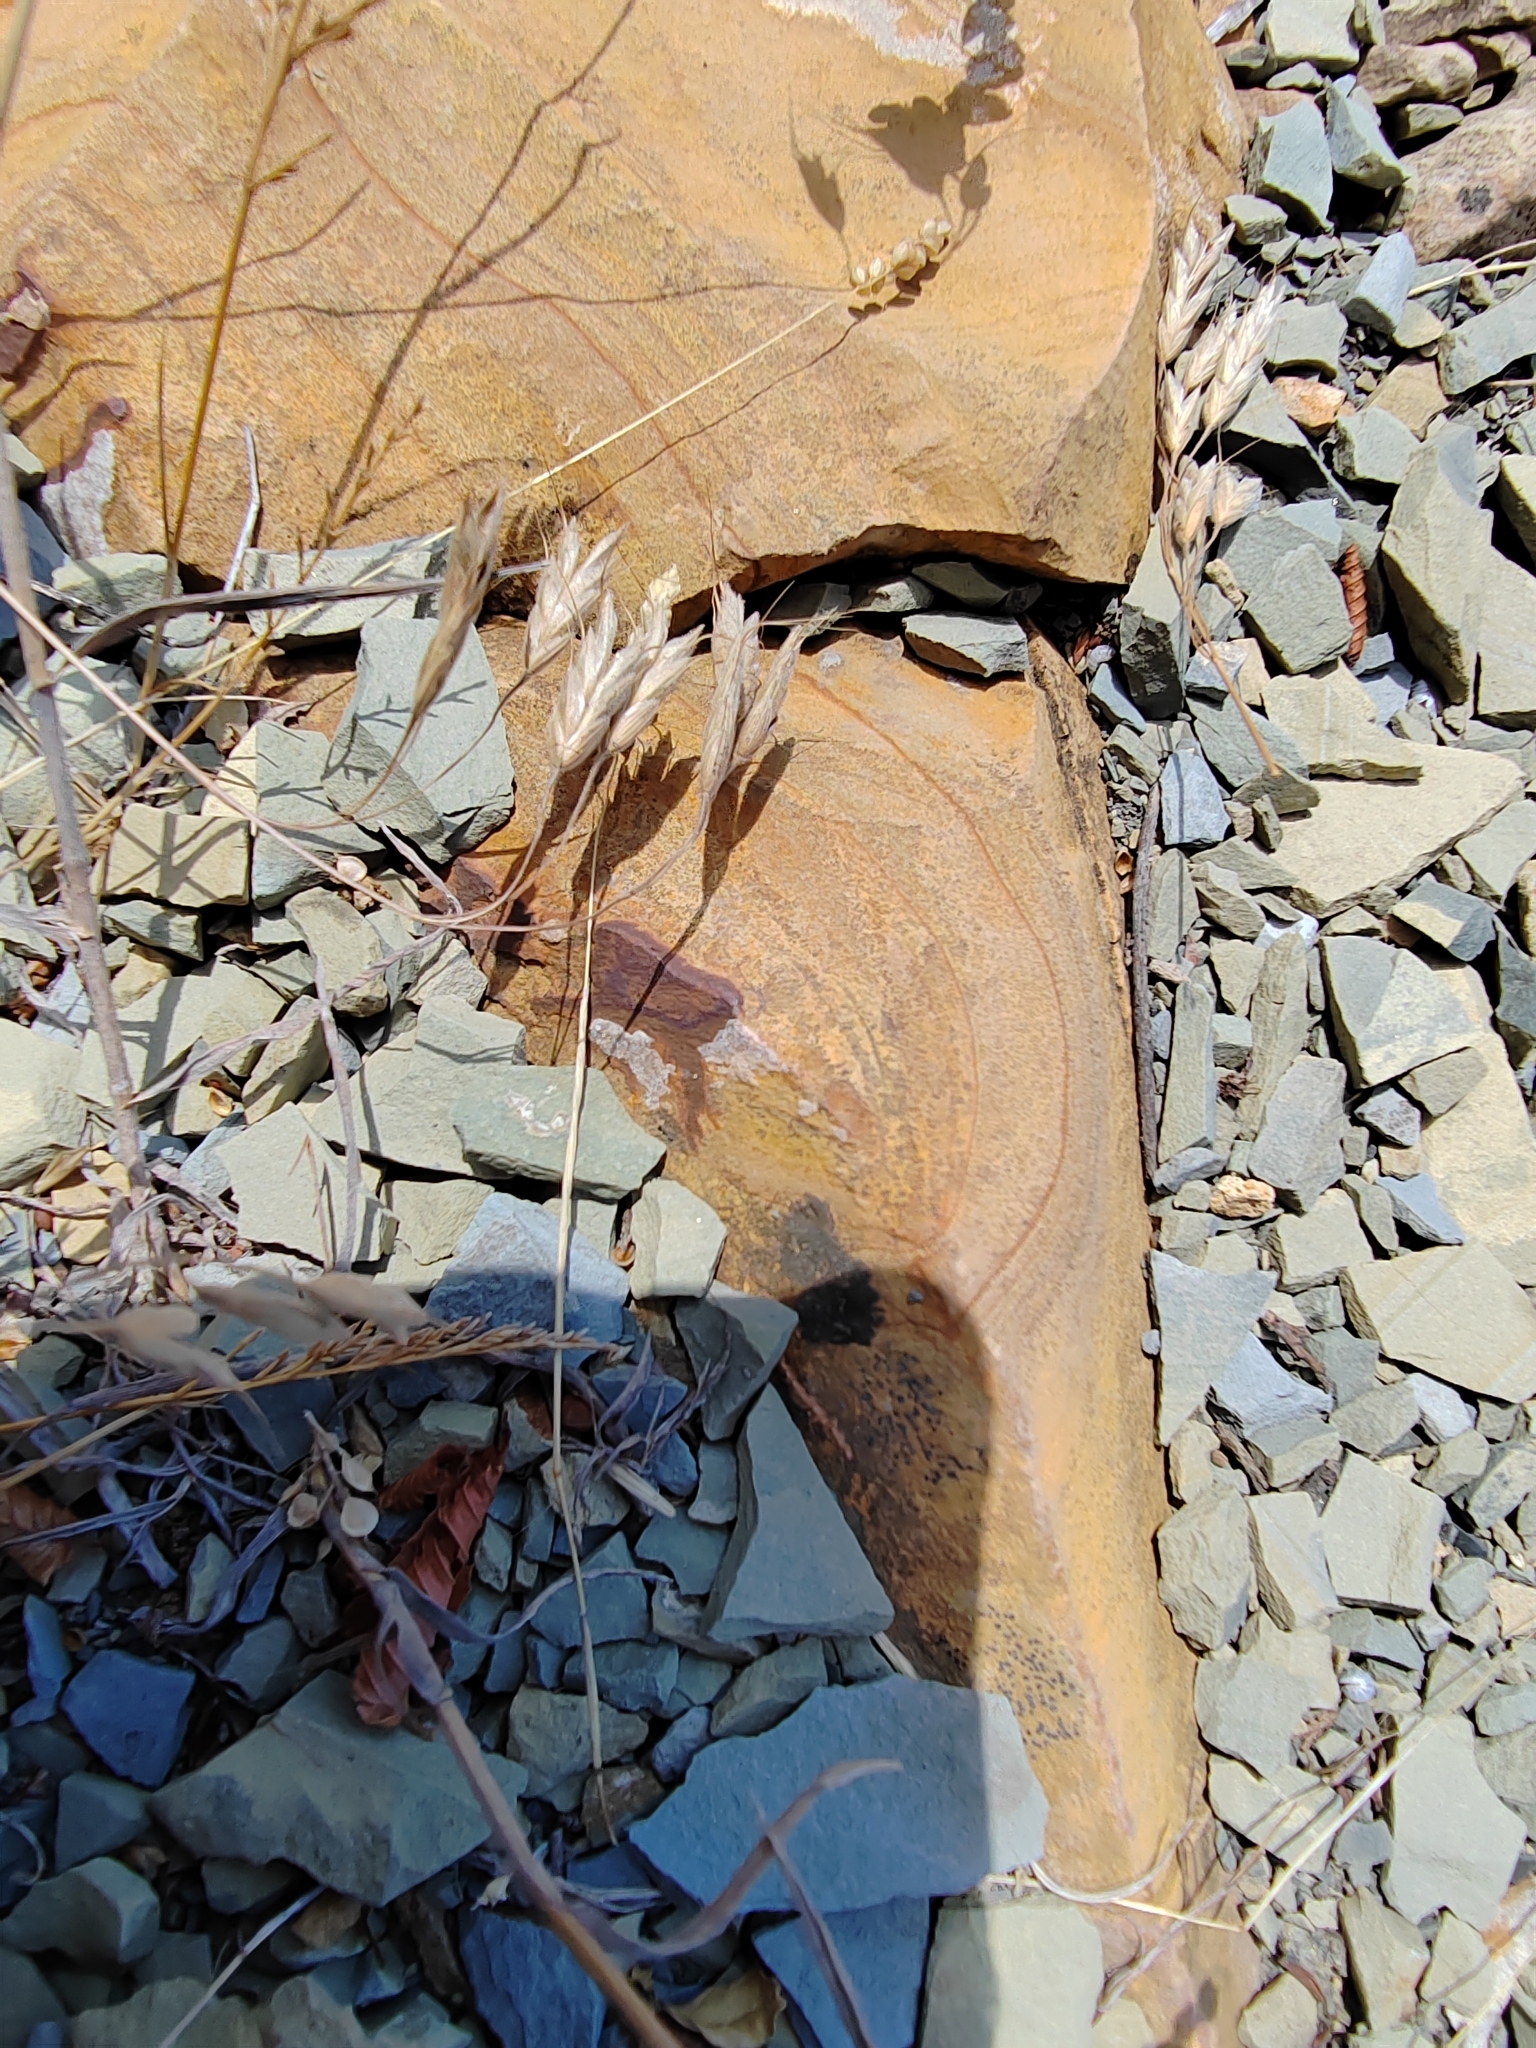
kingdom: Plantae
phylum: Tracheophyta
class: Liliopsida
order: Poales
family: Poaceae
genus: Bromus
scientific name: Bromus squarrosus
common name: Corn brome
